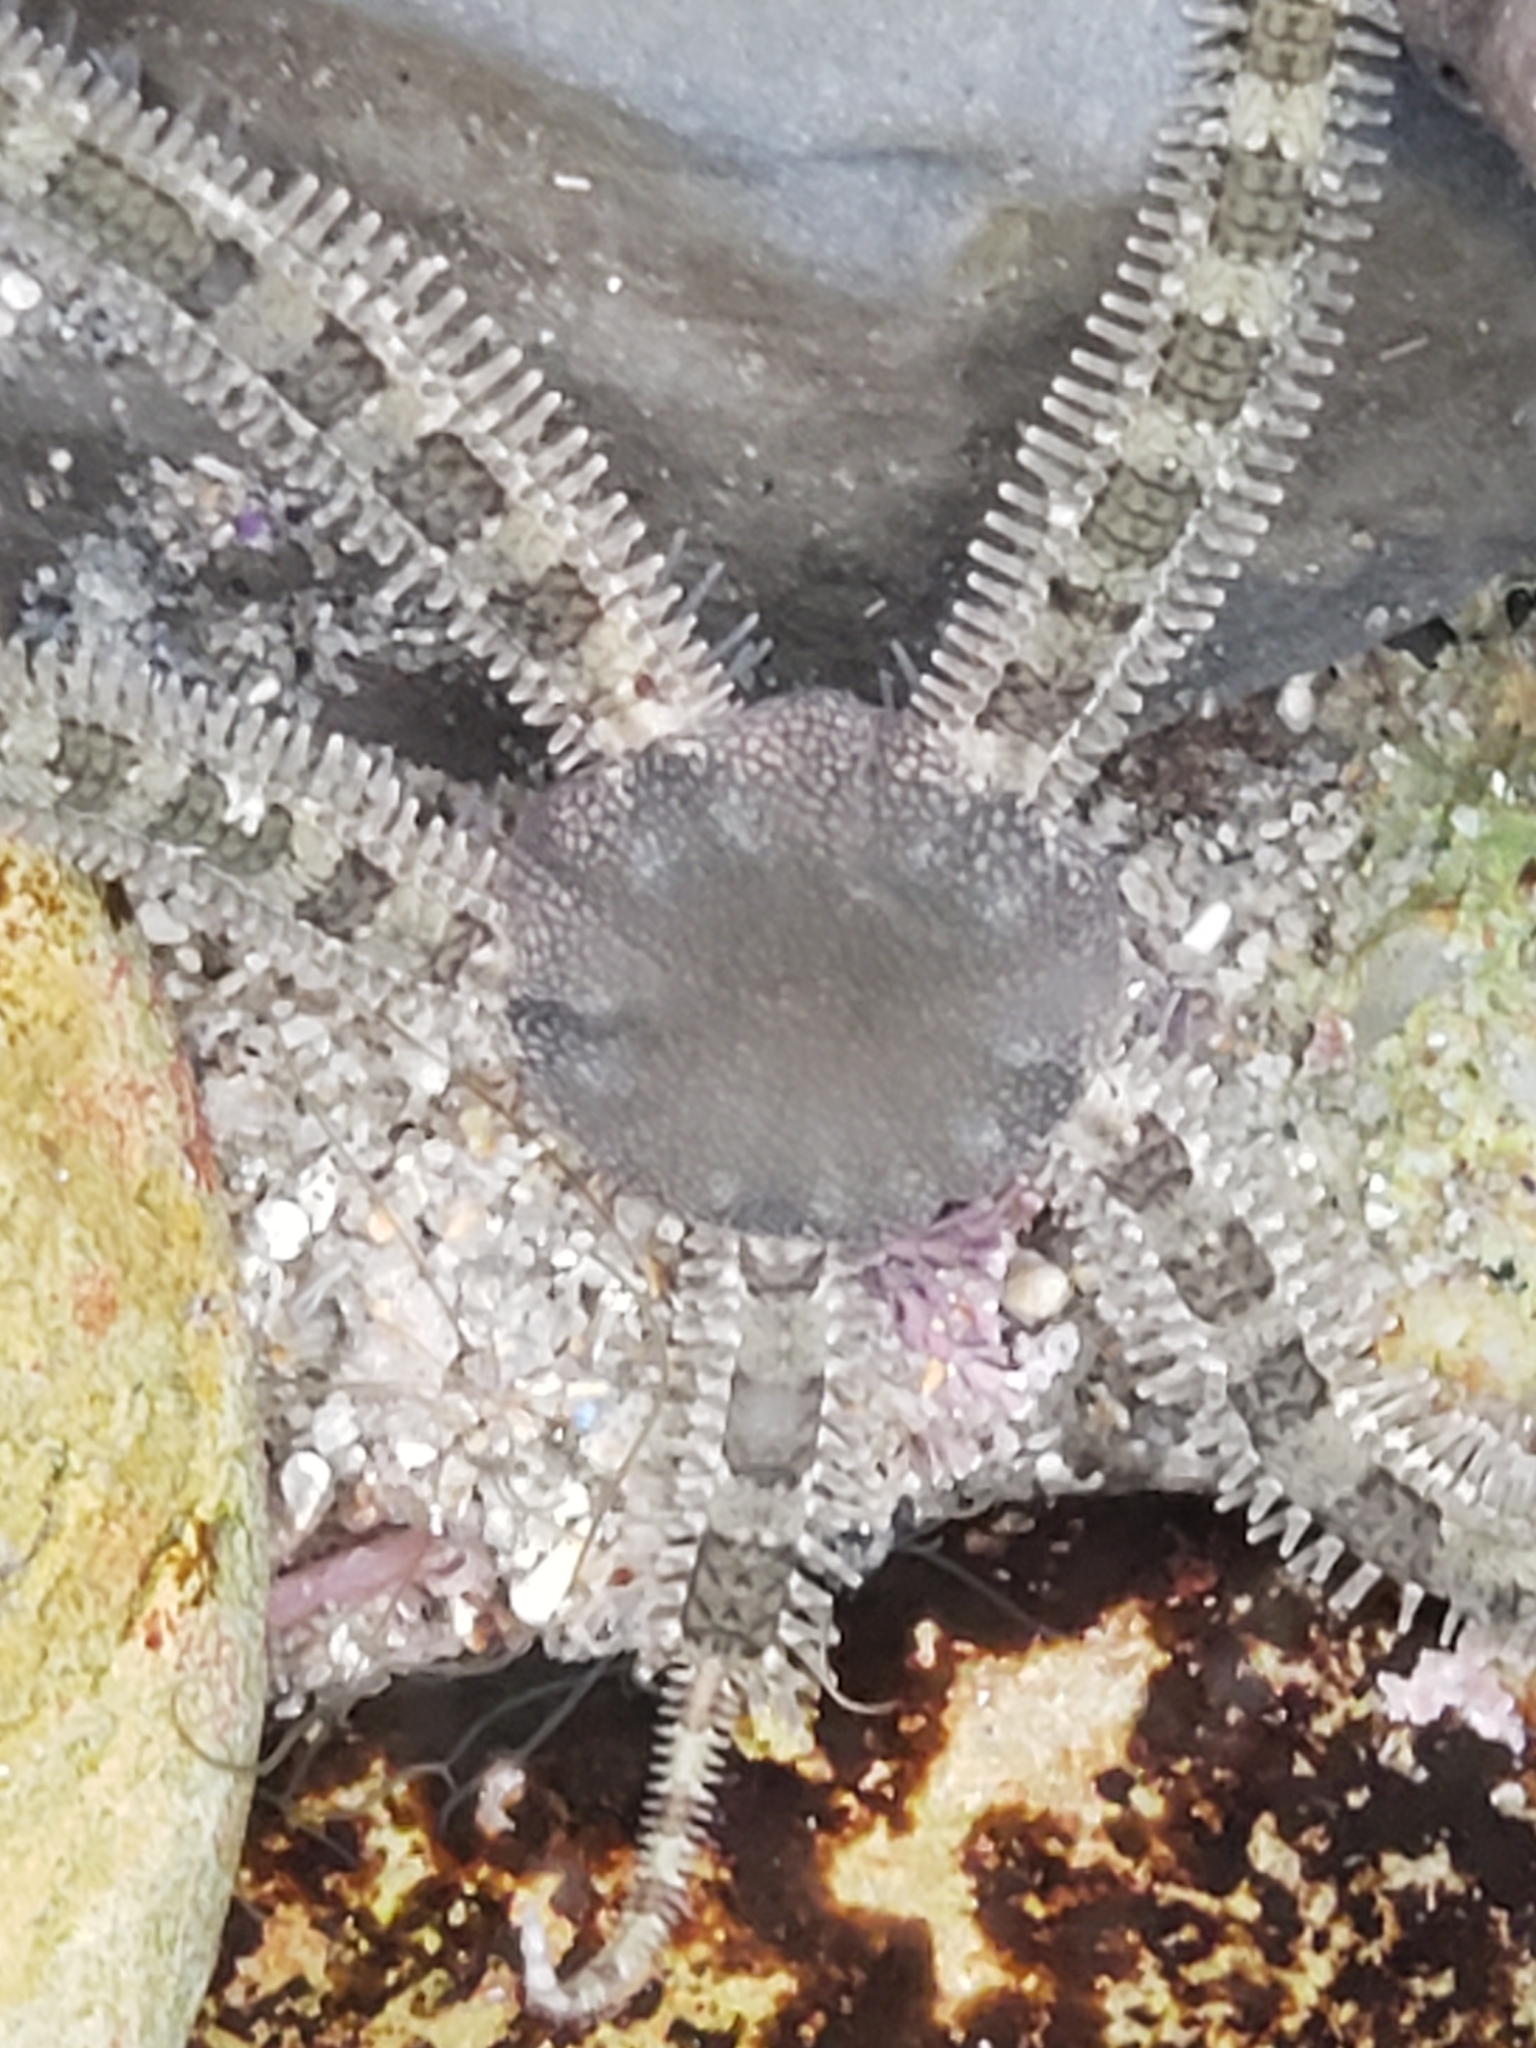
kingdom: Animalia
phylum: Echinodermata
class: Ophiuroidea
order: Amphilepidida
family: Ophionereididae
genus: Ophionereis
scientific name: Ophionereis annulata
